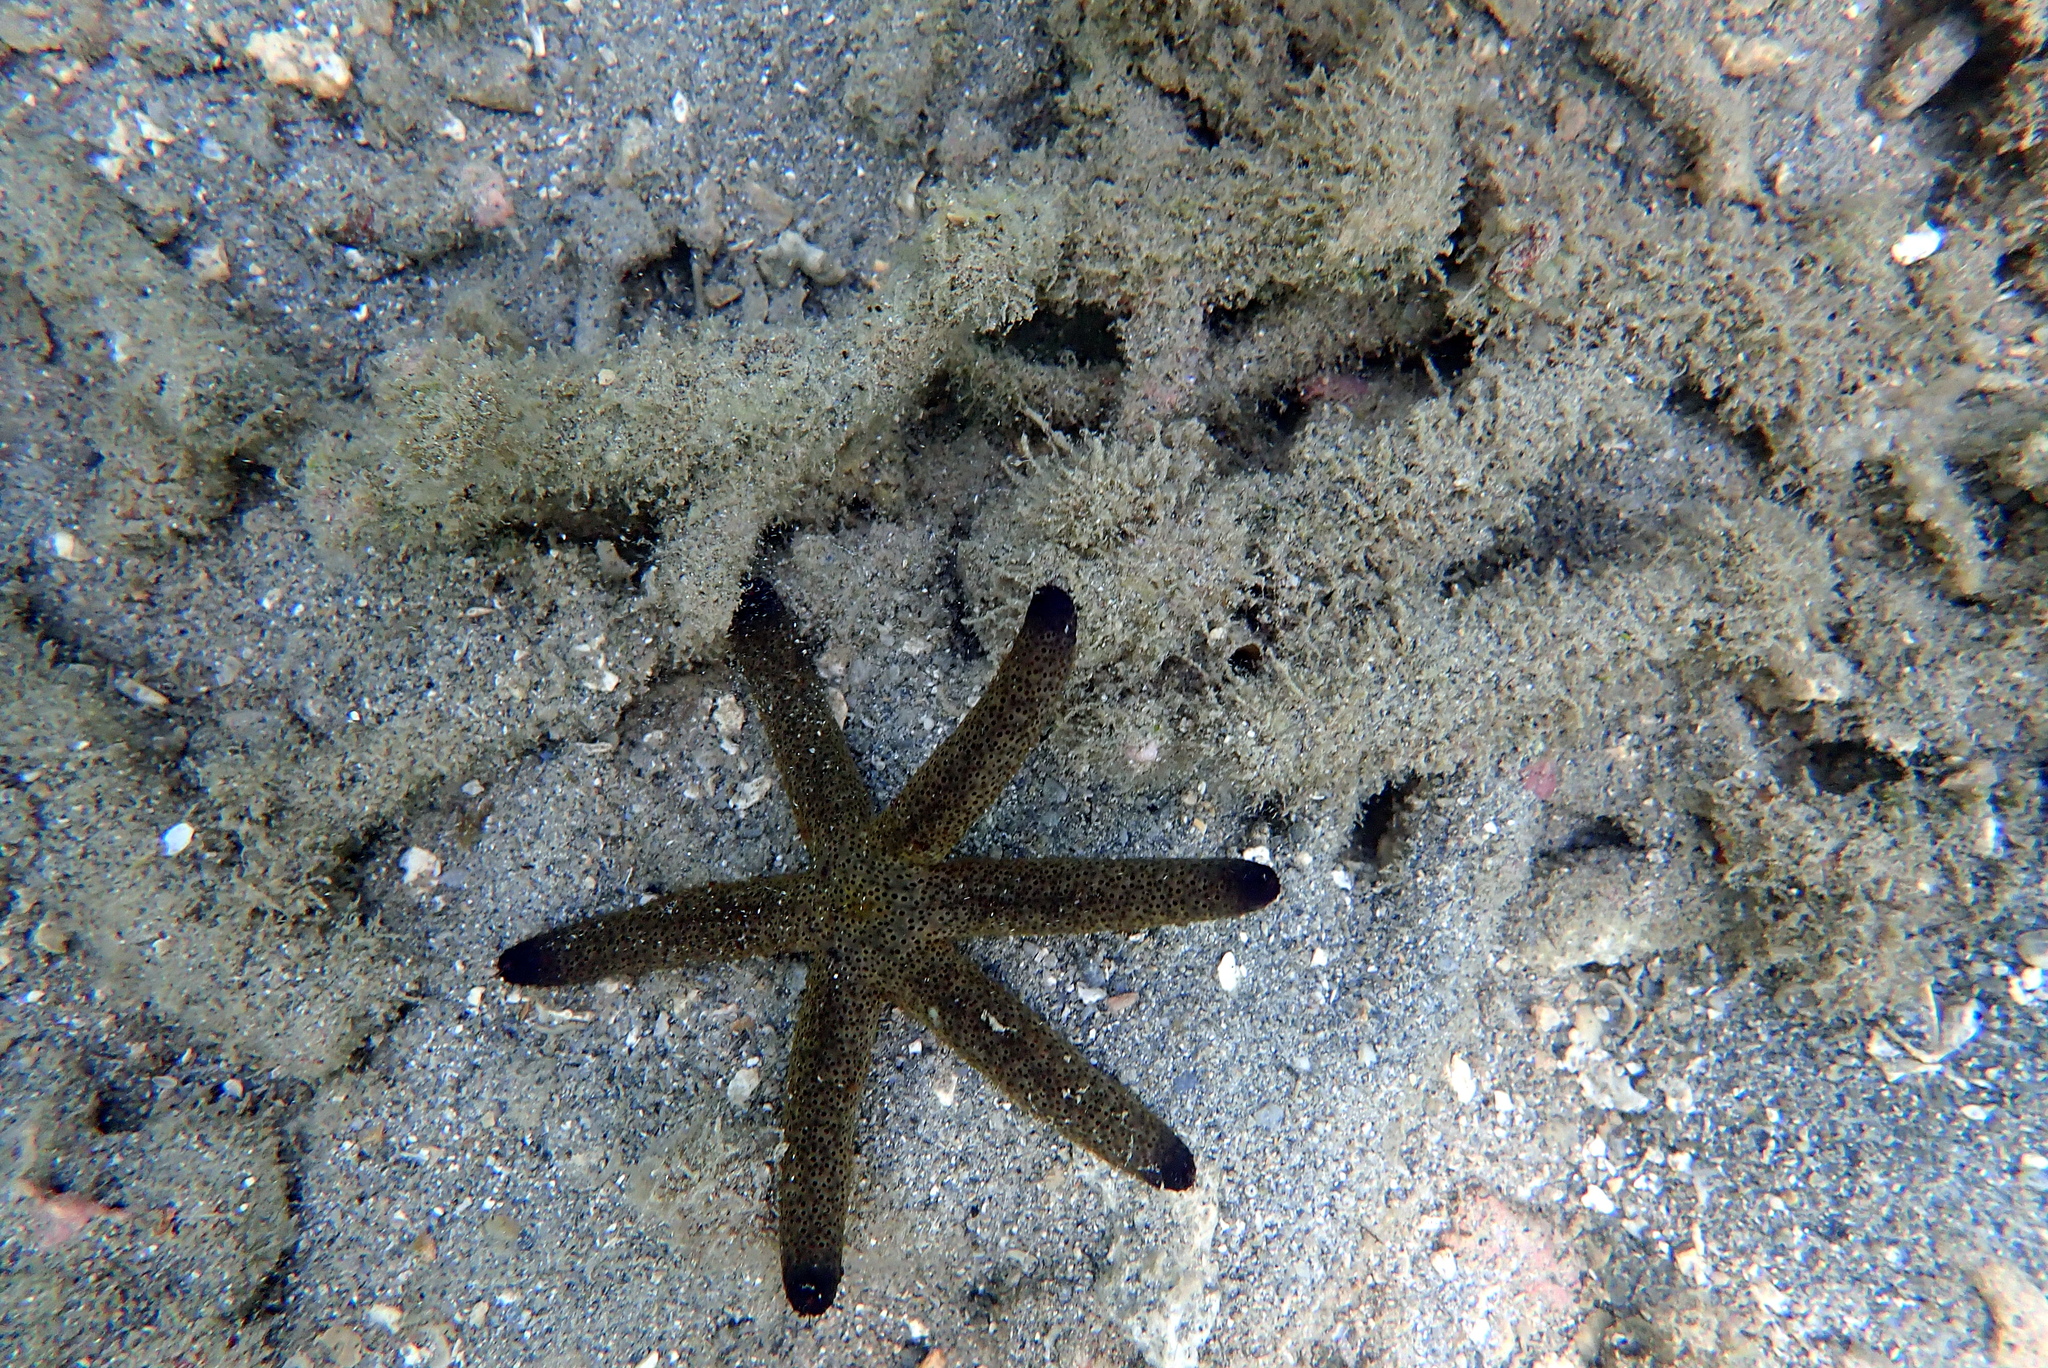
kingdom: Animalia
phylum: Echinodermata
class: Asteroidea
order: Spinulosida
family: Echinasteridae
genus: Echinaster
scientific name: Echinaster luzonicus
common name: Luzon seastar
